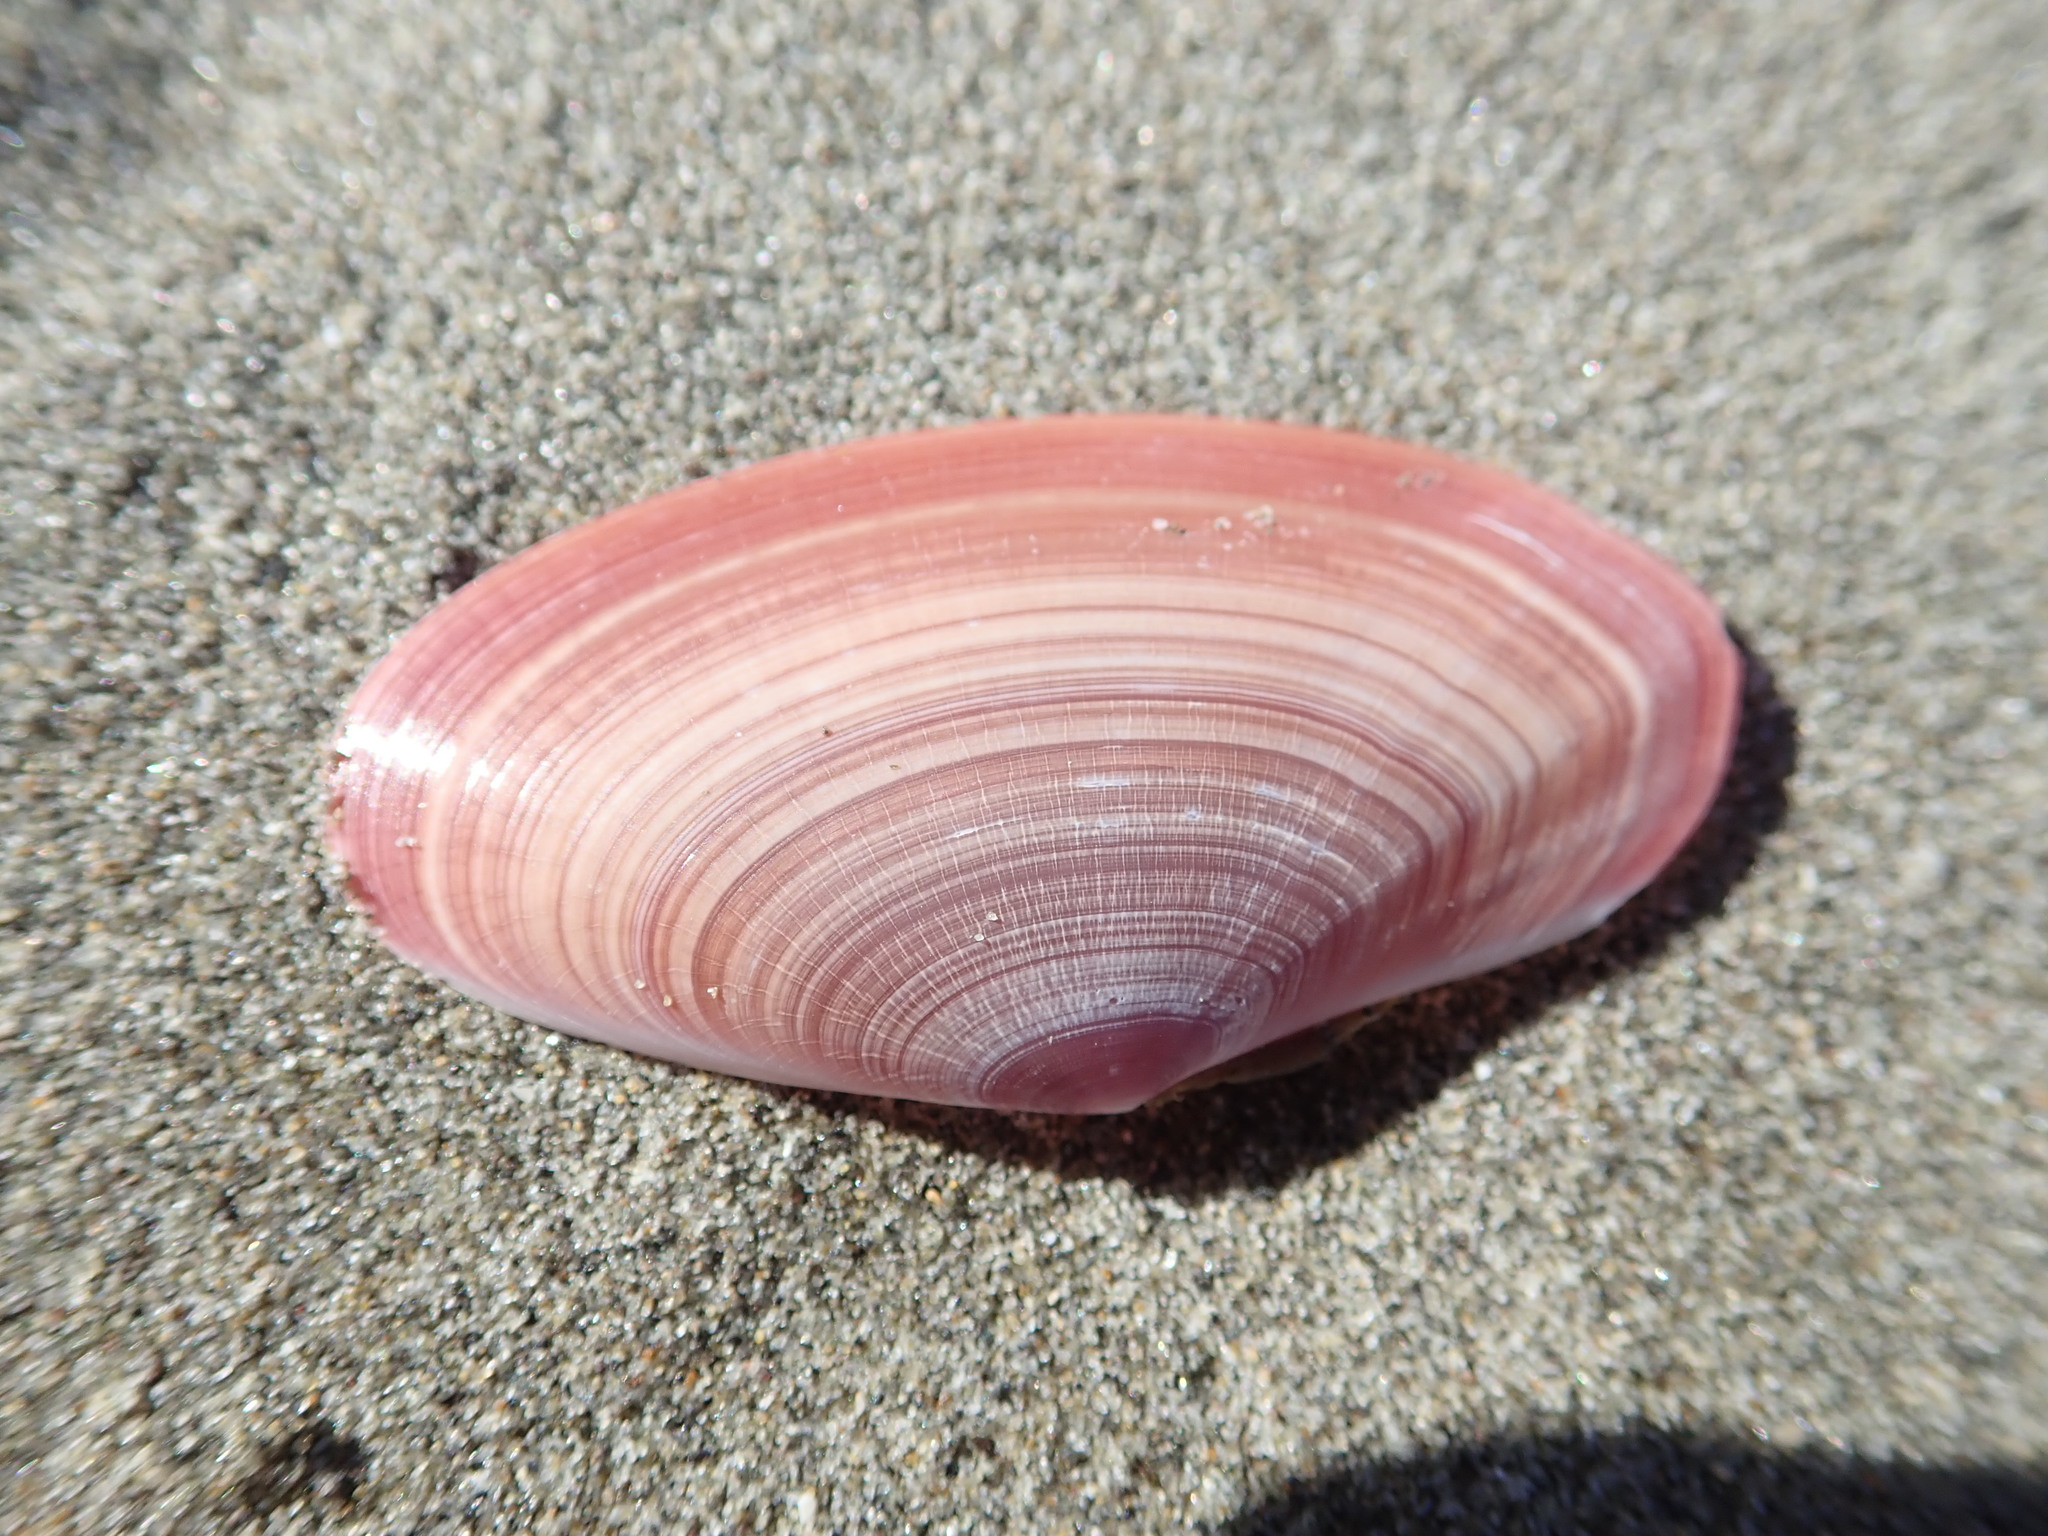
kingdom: Animalia
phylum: Mollusca
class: Bivalvia
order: Cardiida
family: Psammobiidae
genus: Gari
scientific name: Gari lineolata
